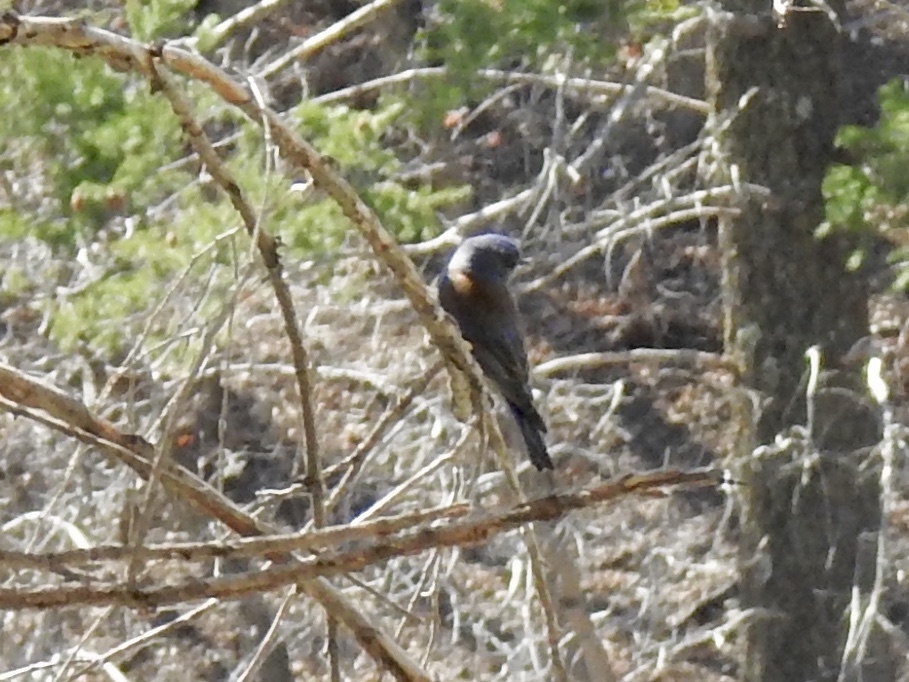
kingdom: Animalia
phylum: Chordata
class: Aves
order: Passeriformes
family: Turdidae
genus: Sialia
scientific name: Sialia mexicana
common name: Western bluebird
